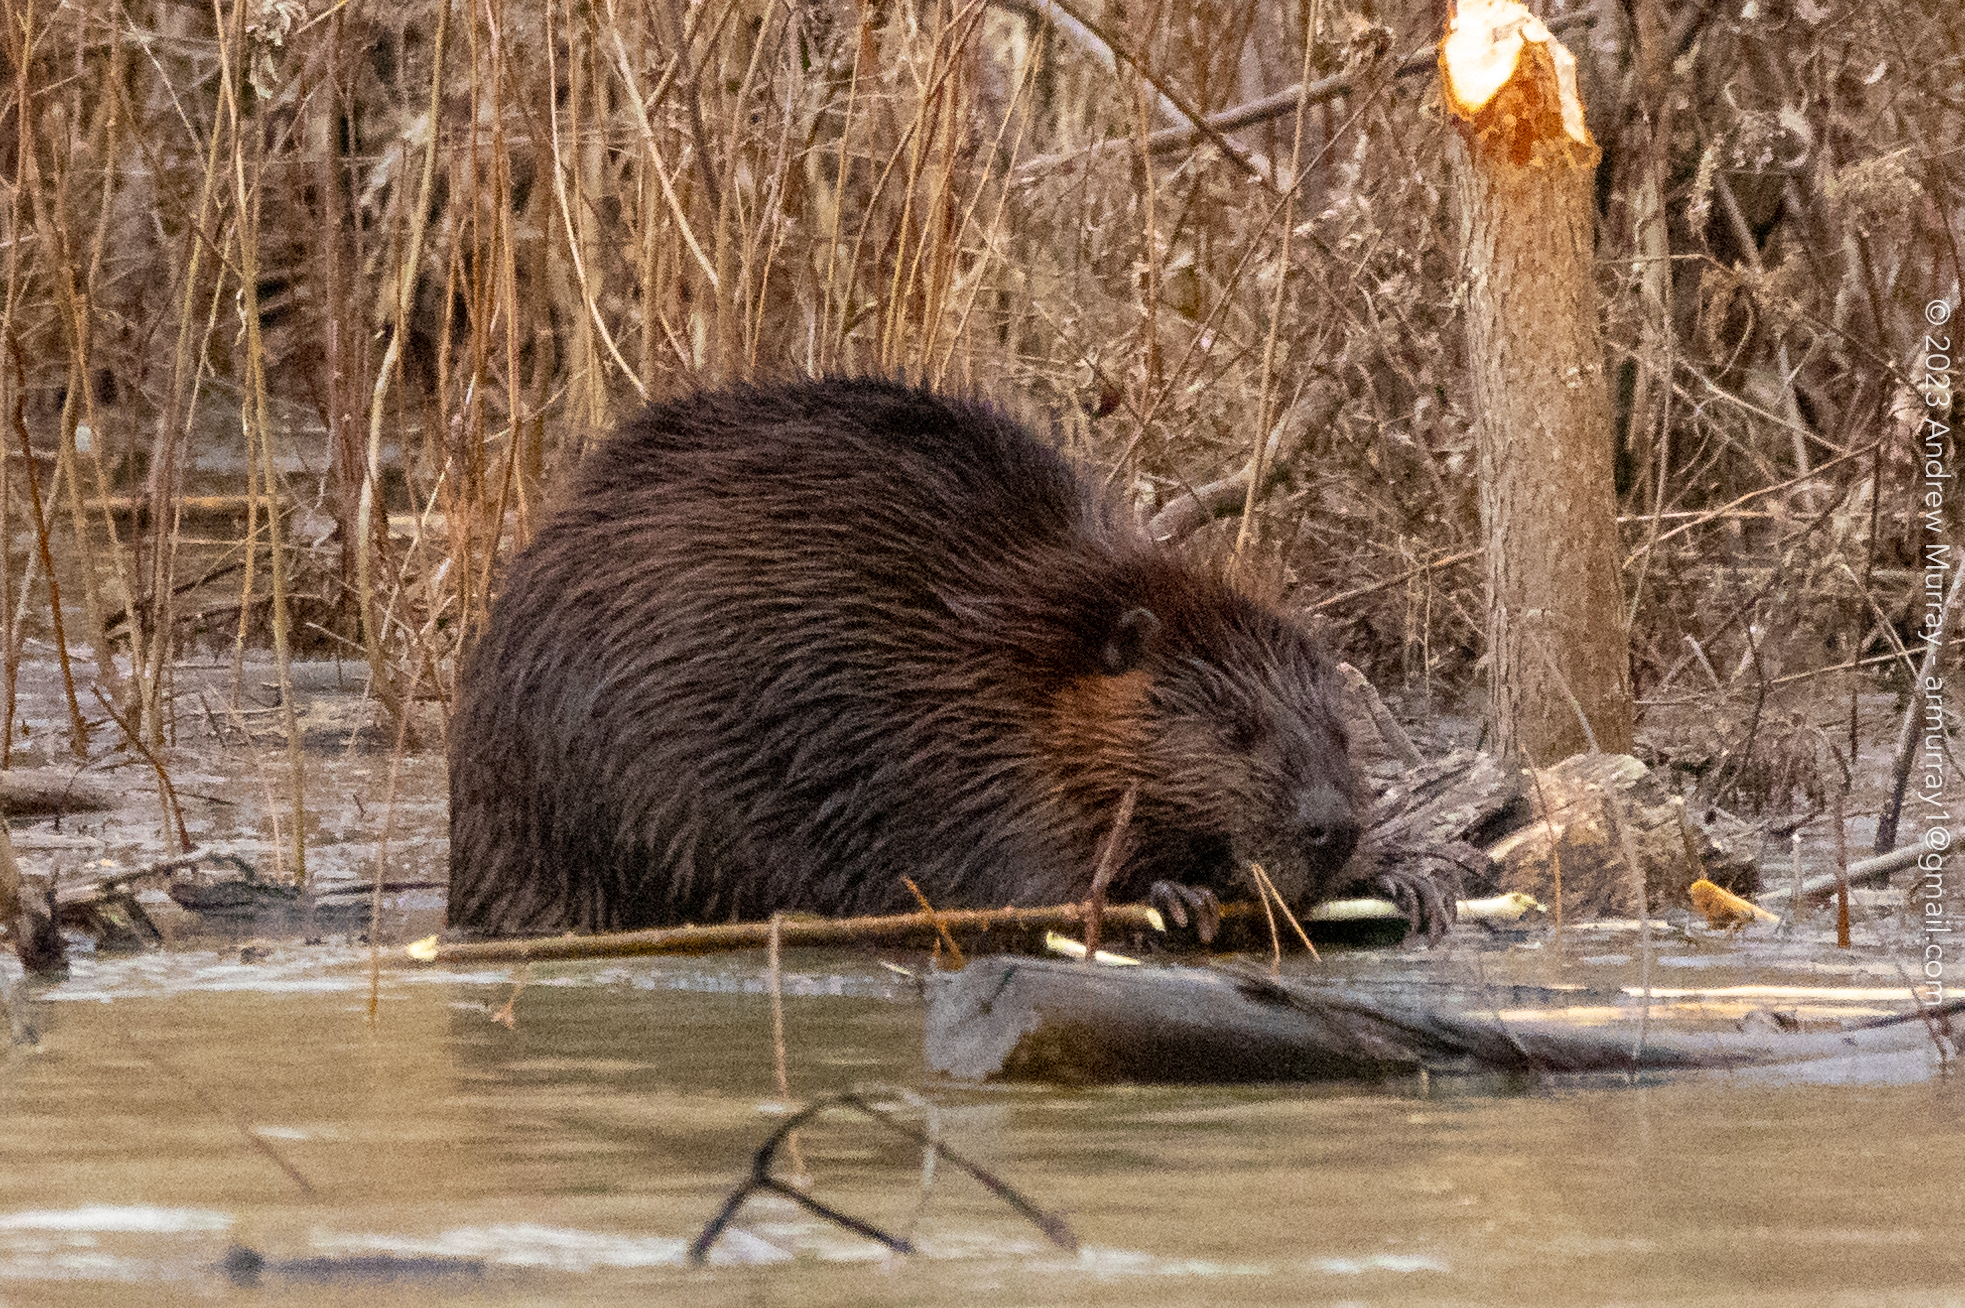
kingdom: Animalia
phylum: Chordata
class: Mammalia
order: Rodentia
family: Castoridae
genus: Castor
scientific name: Castor canadensis
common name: American beaver
